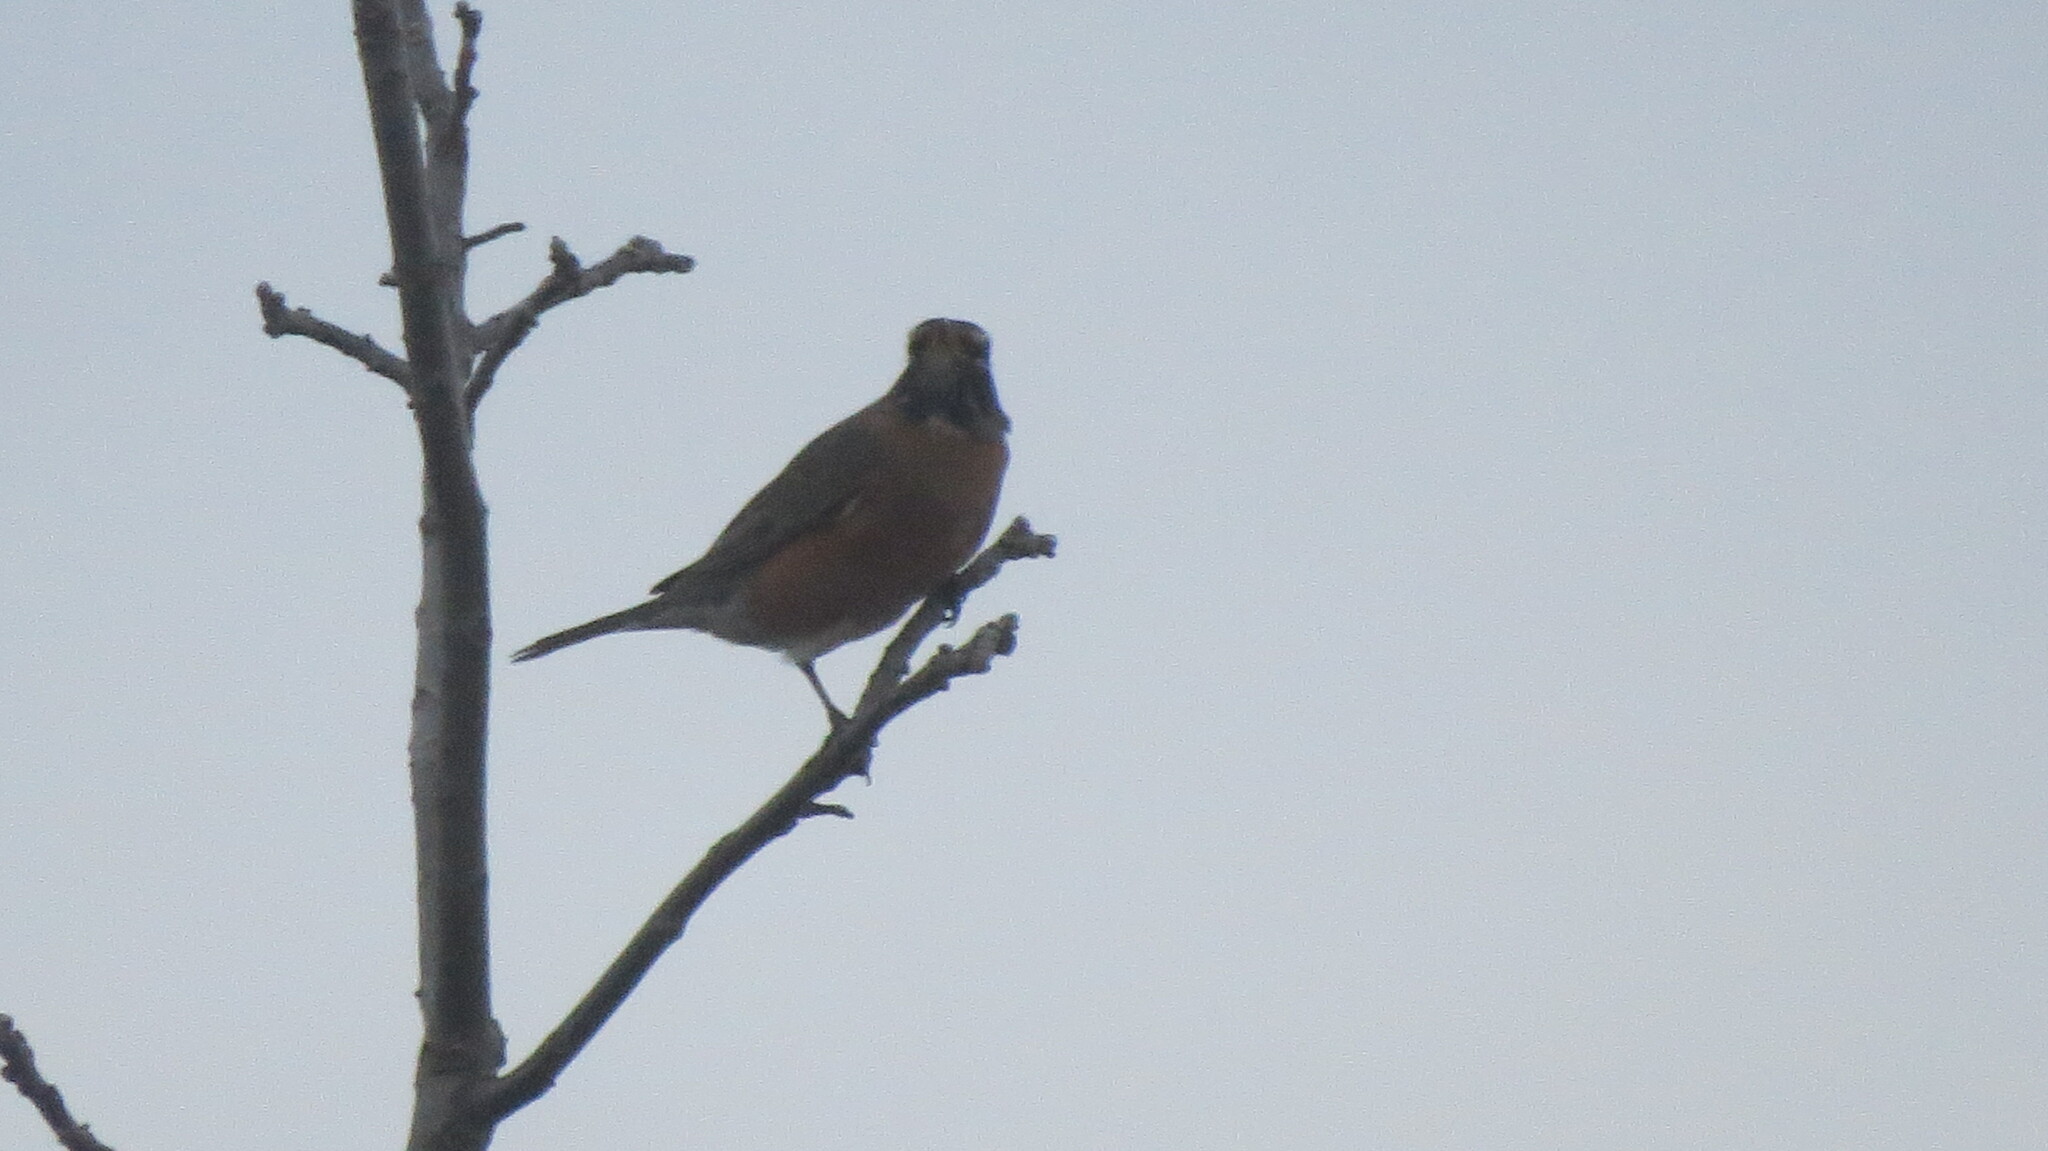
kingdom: Animalia
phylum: Chordata
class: Aves
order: Passeriformes
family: Turdidae
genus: Turdus
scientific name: Turdus migratorius
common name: American robin
